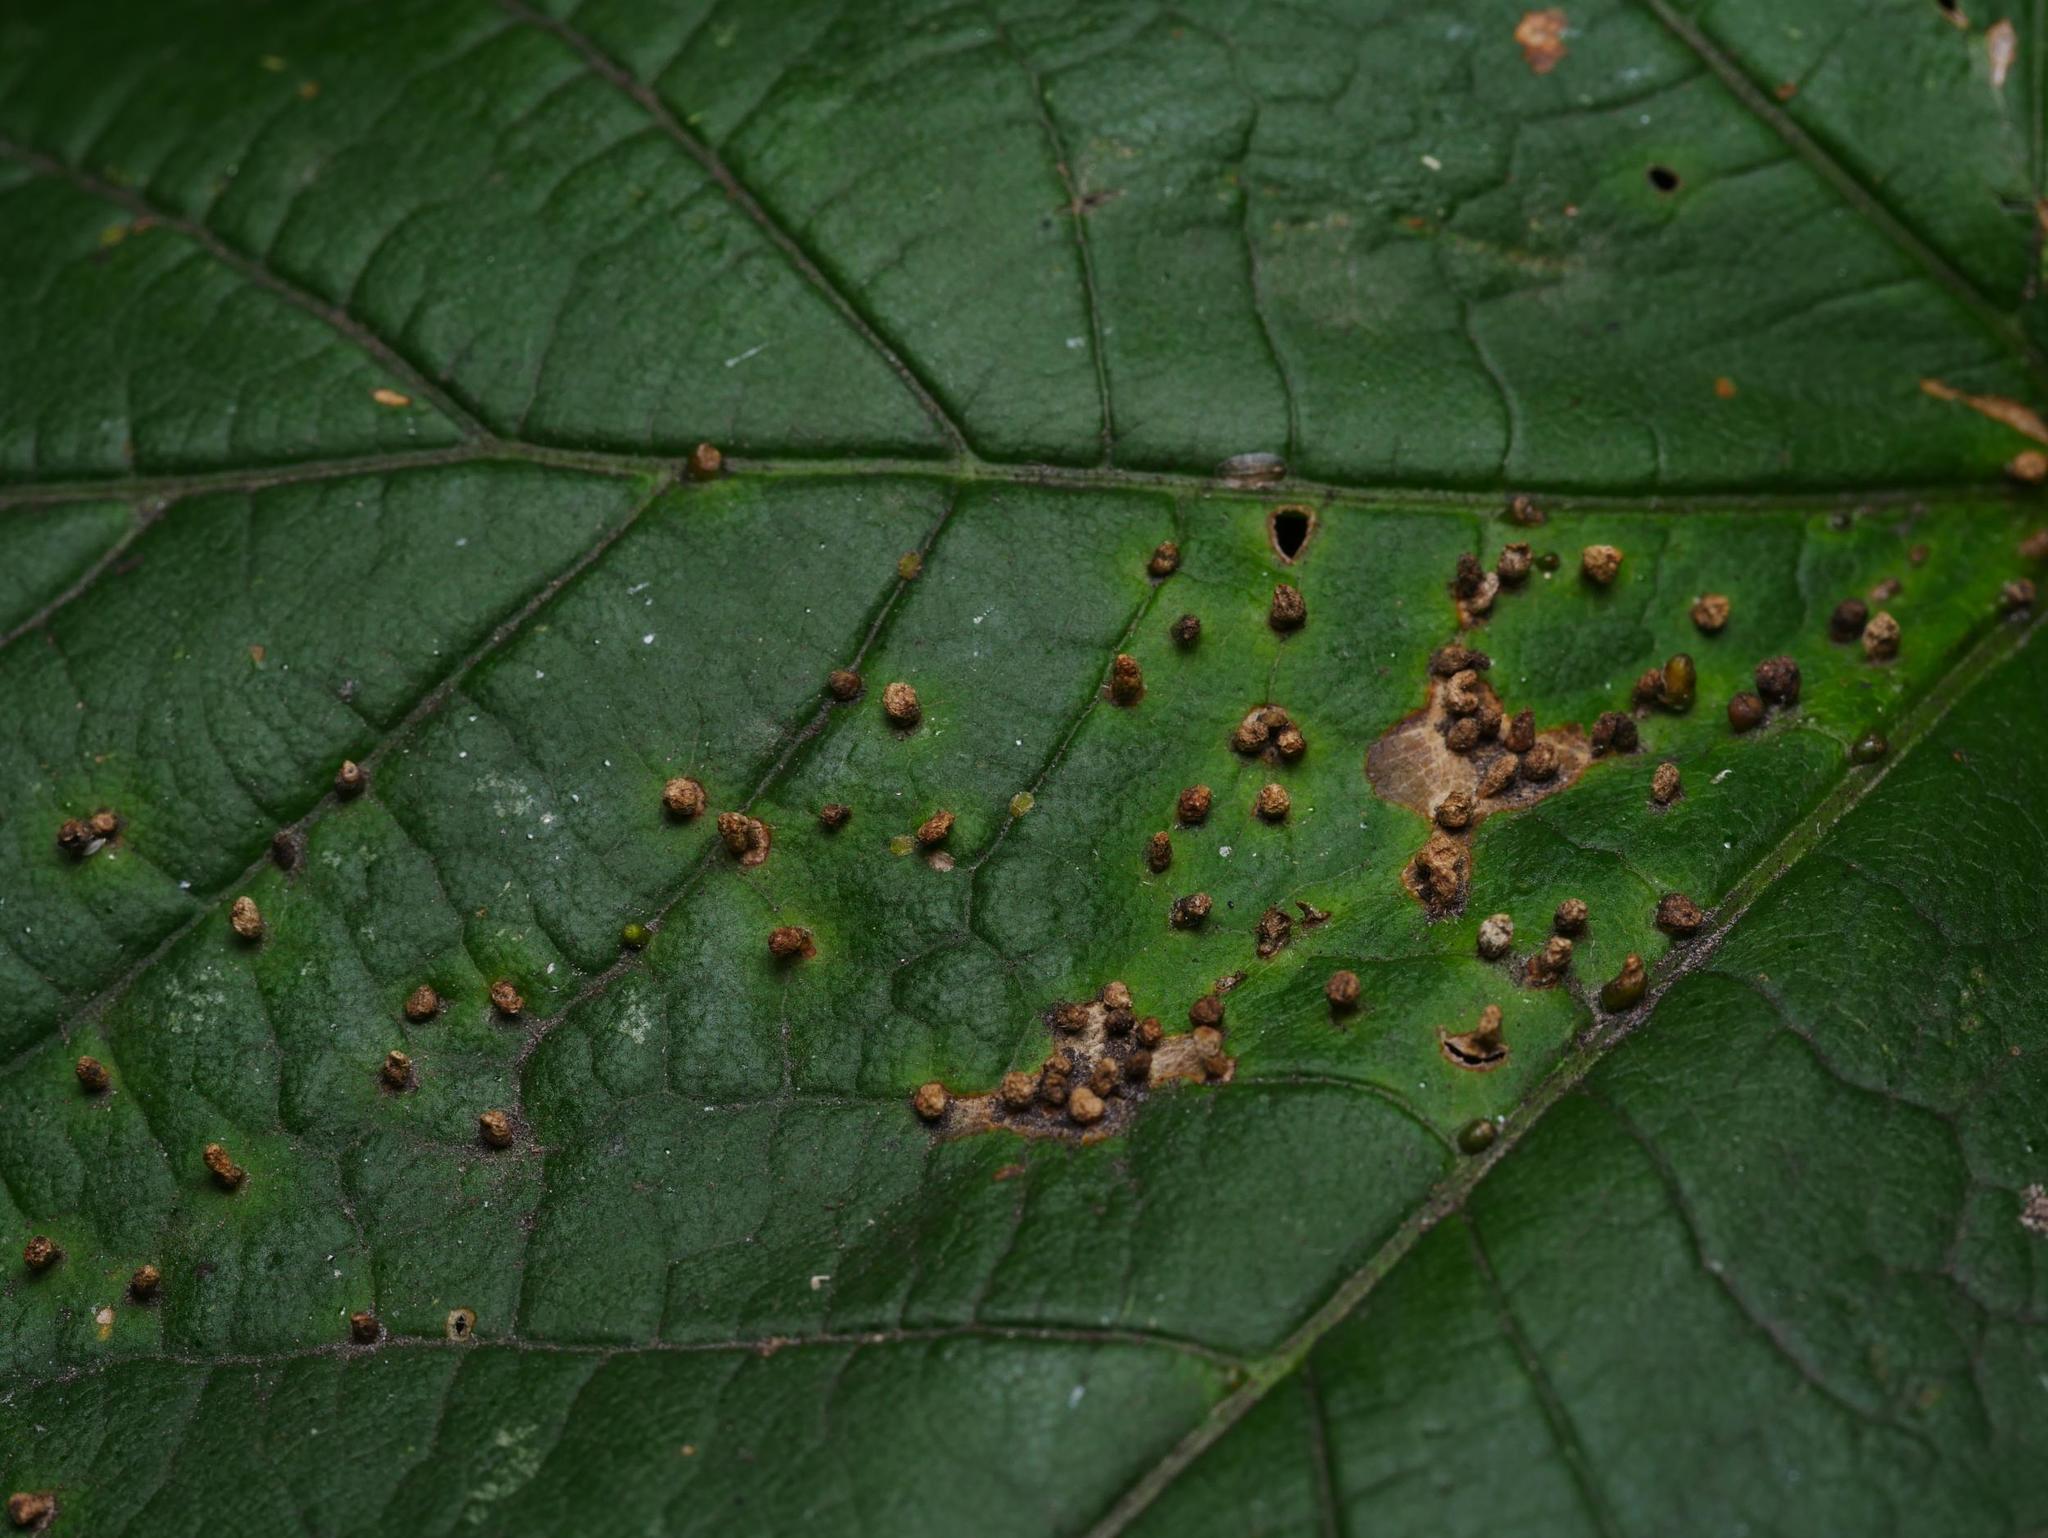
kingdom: Animalia
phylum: Arthropoda
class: Arachnida
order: Trombidiformes
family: Eriophyidae
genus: Aceria
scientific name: Aceria cephaloneus
